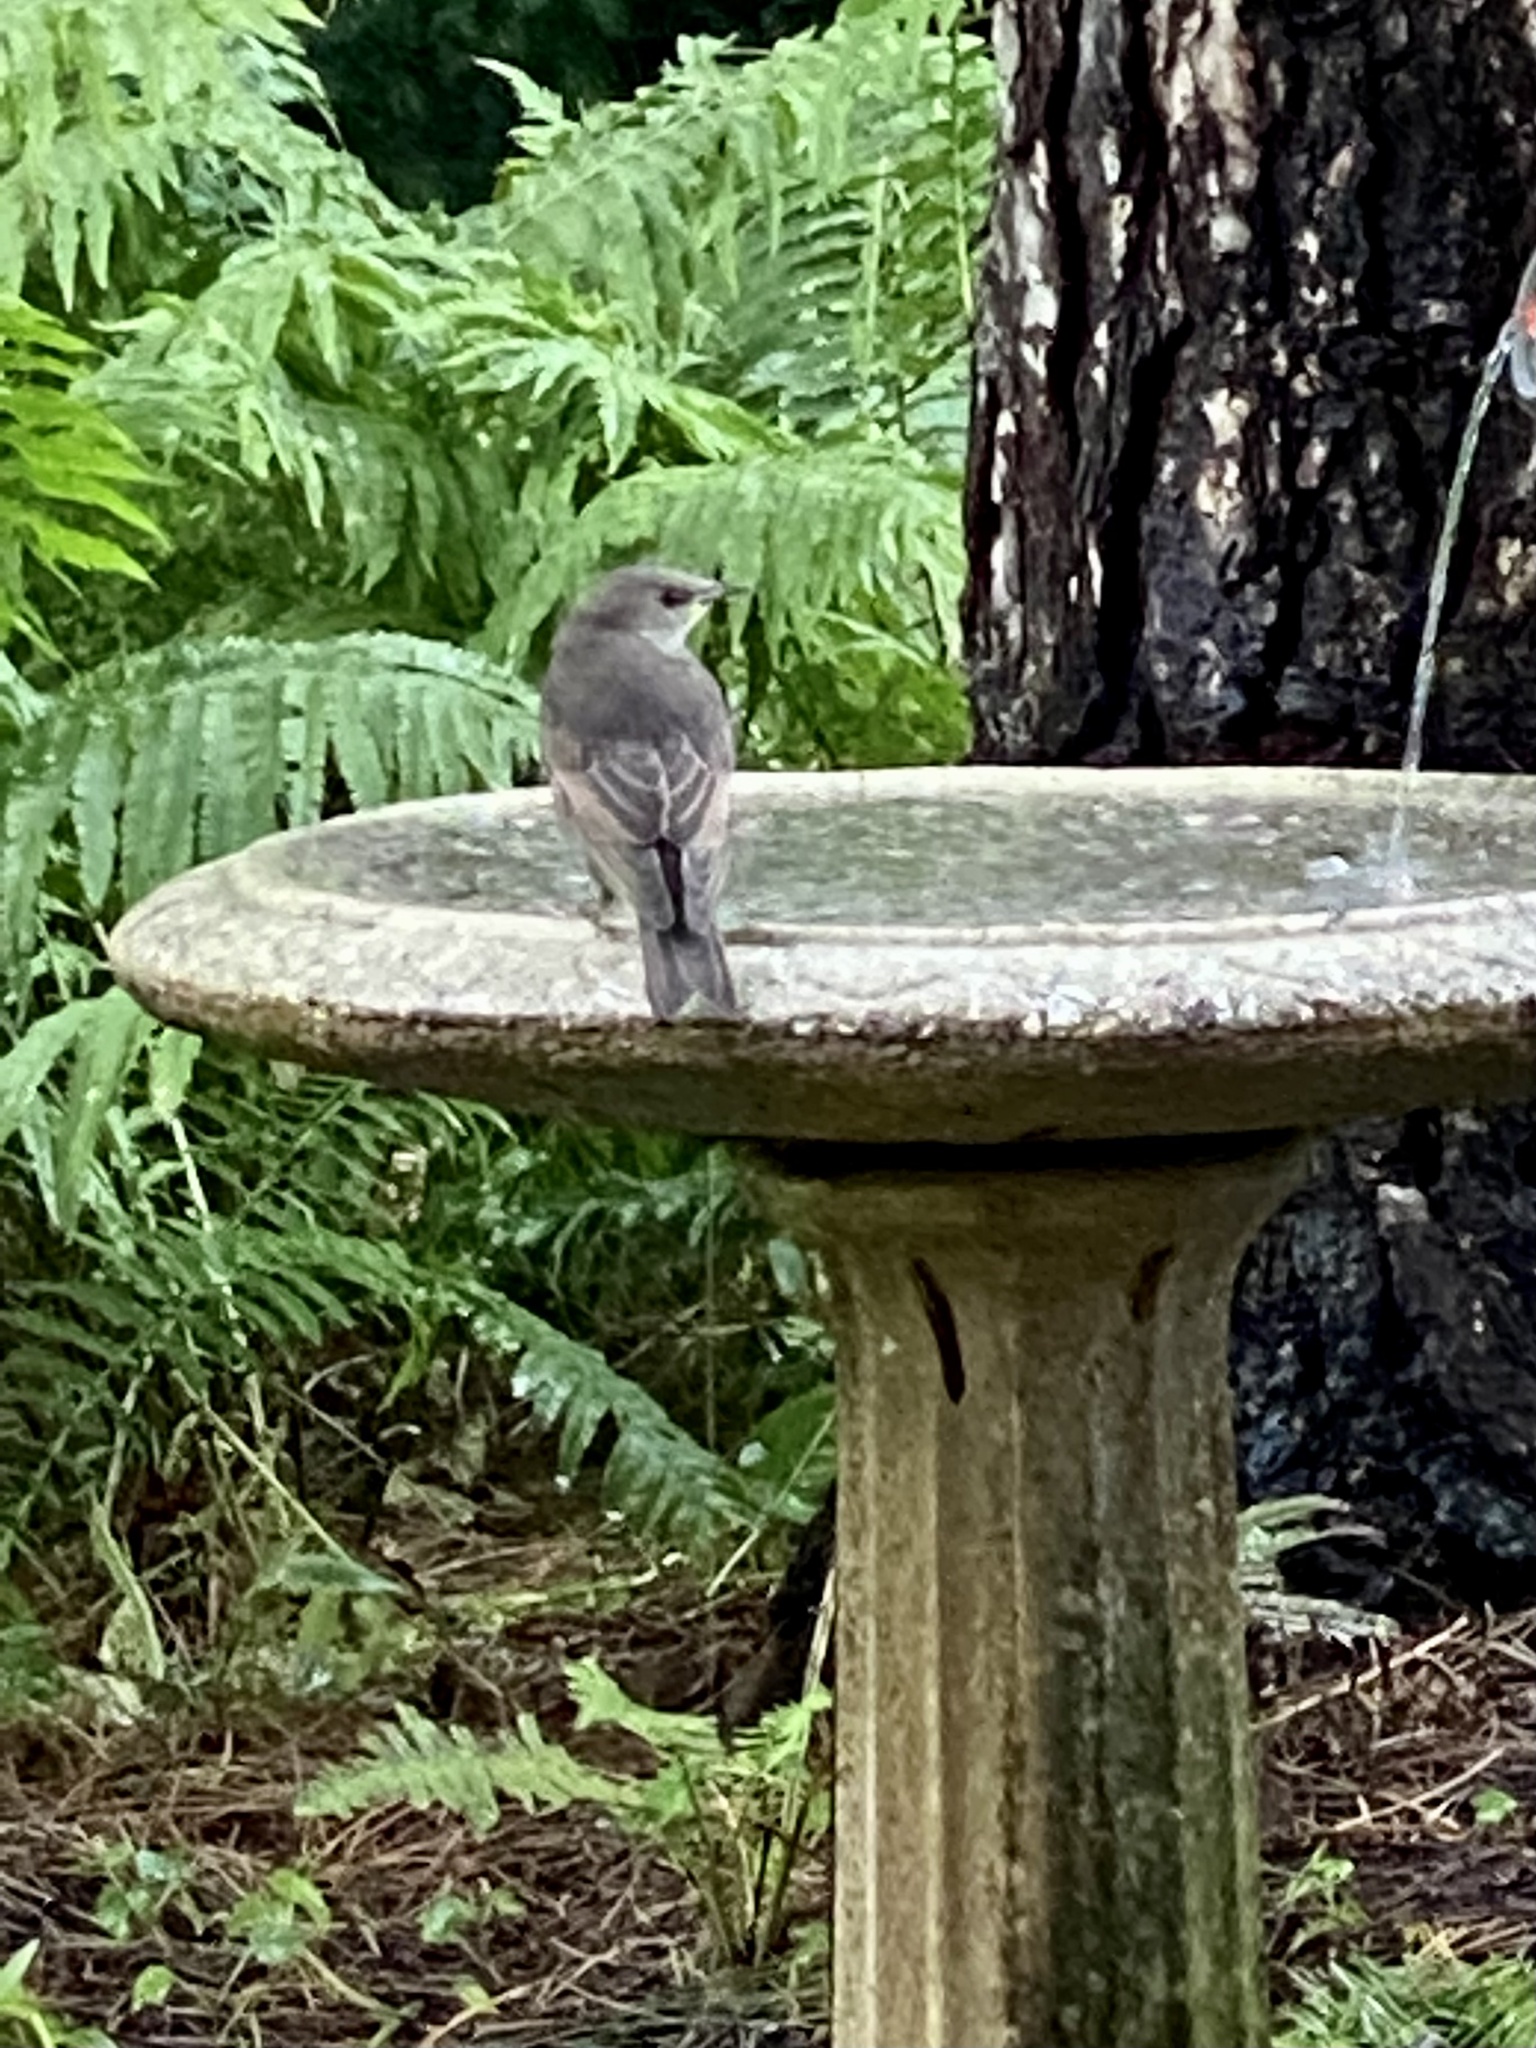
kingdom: Animalia
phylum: Chordata
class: Aves
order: Passeriformes
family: Sturnidae
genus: Sturnus
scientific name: Sturnus vulgaris
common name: Common starling
